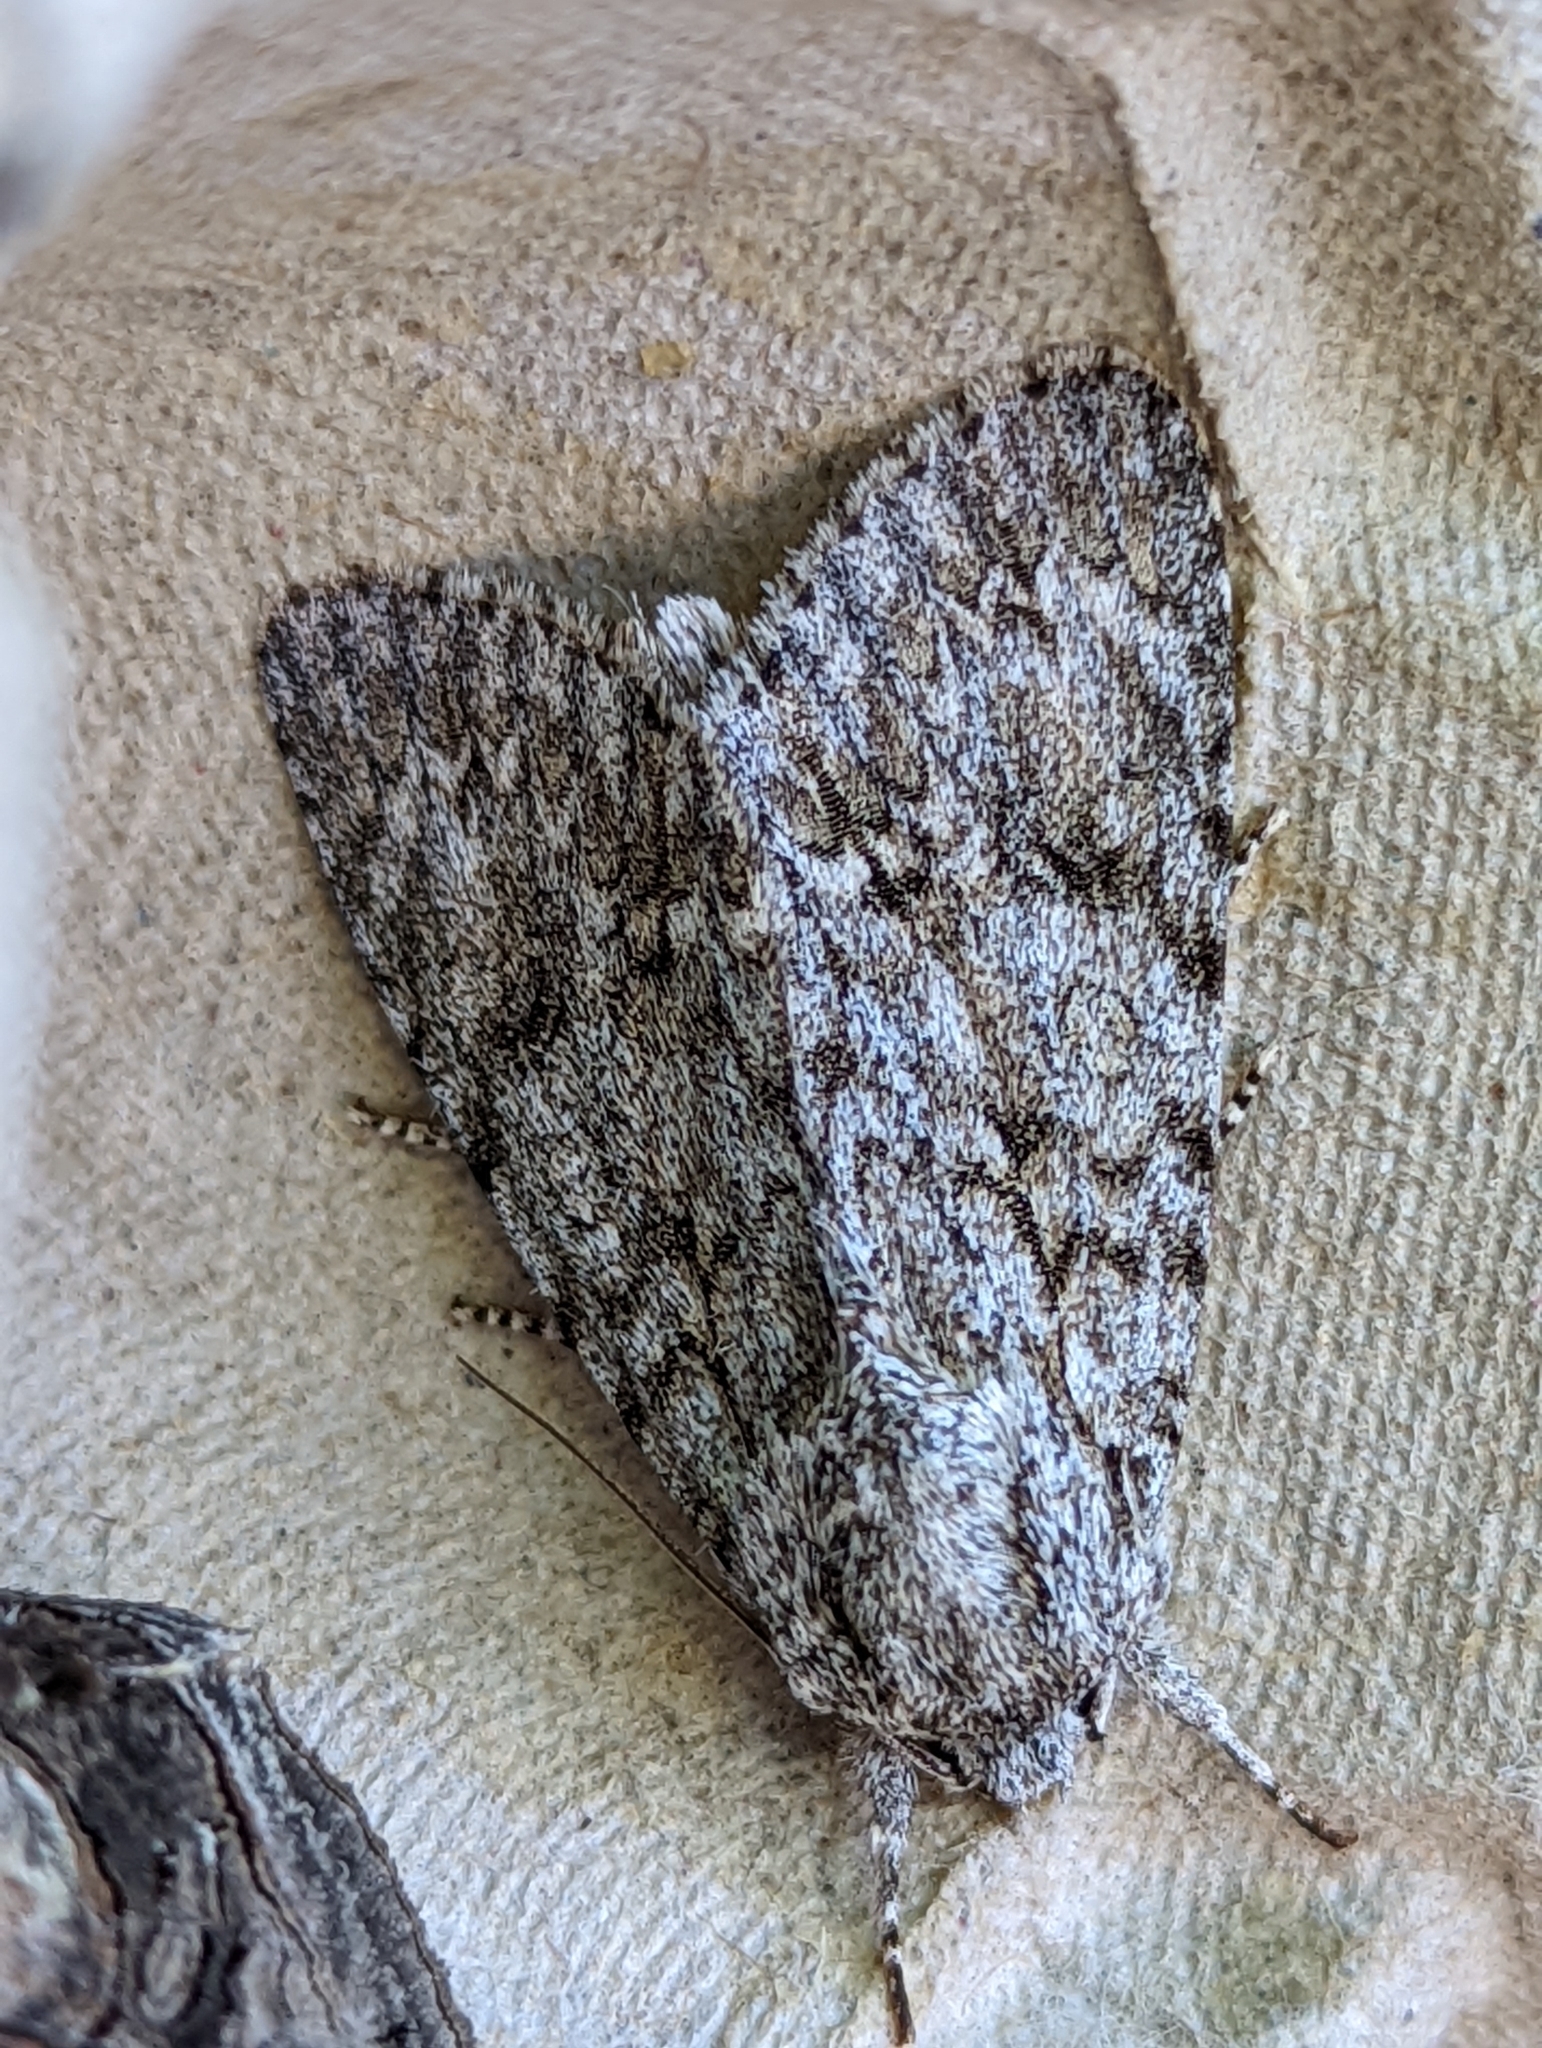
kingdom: Animalia
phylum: Arthropoda
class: Insecta
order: Lepidoptera
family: Noctuidae
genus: Acronicta
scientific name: Acronicta aceris
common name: Sycamore
